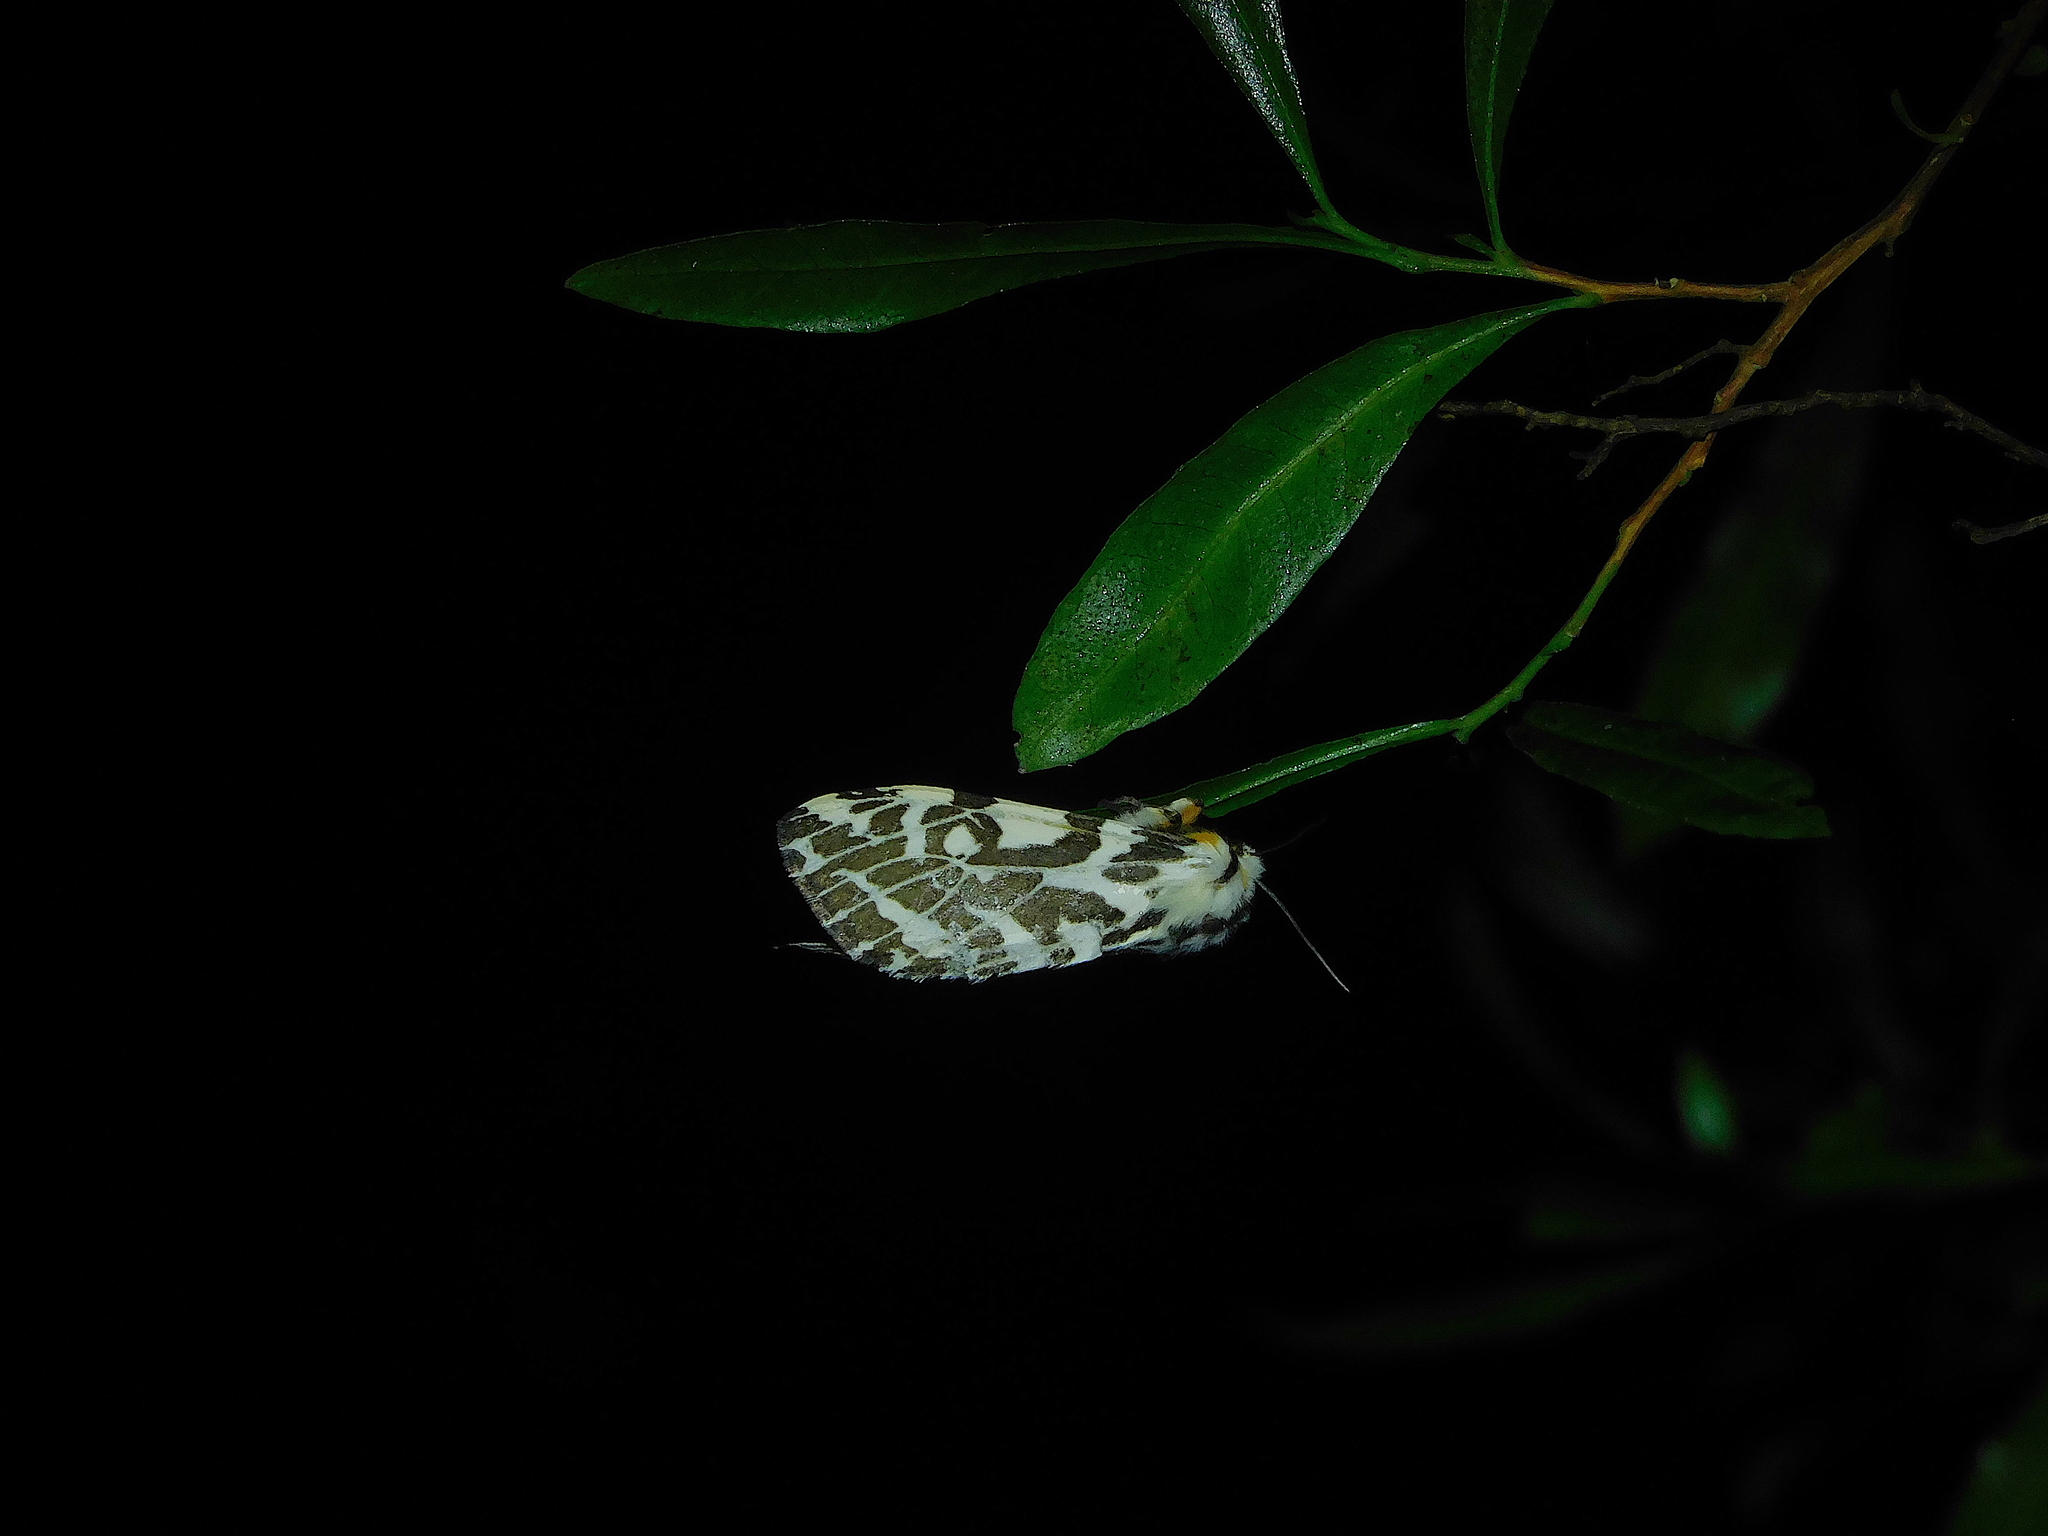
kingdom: Animalia
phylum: Arthropoda
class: Insecta
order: Lepidoptera
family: Erebidae
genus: Ardices
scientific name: Ardices glatignyi
